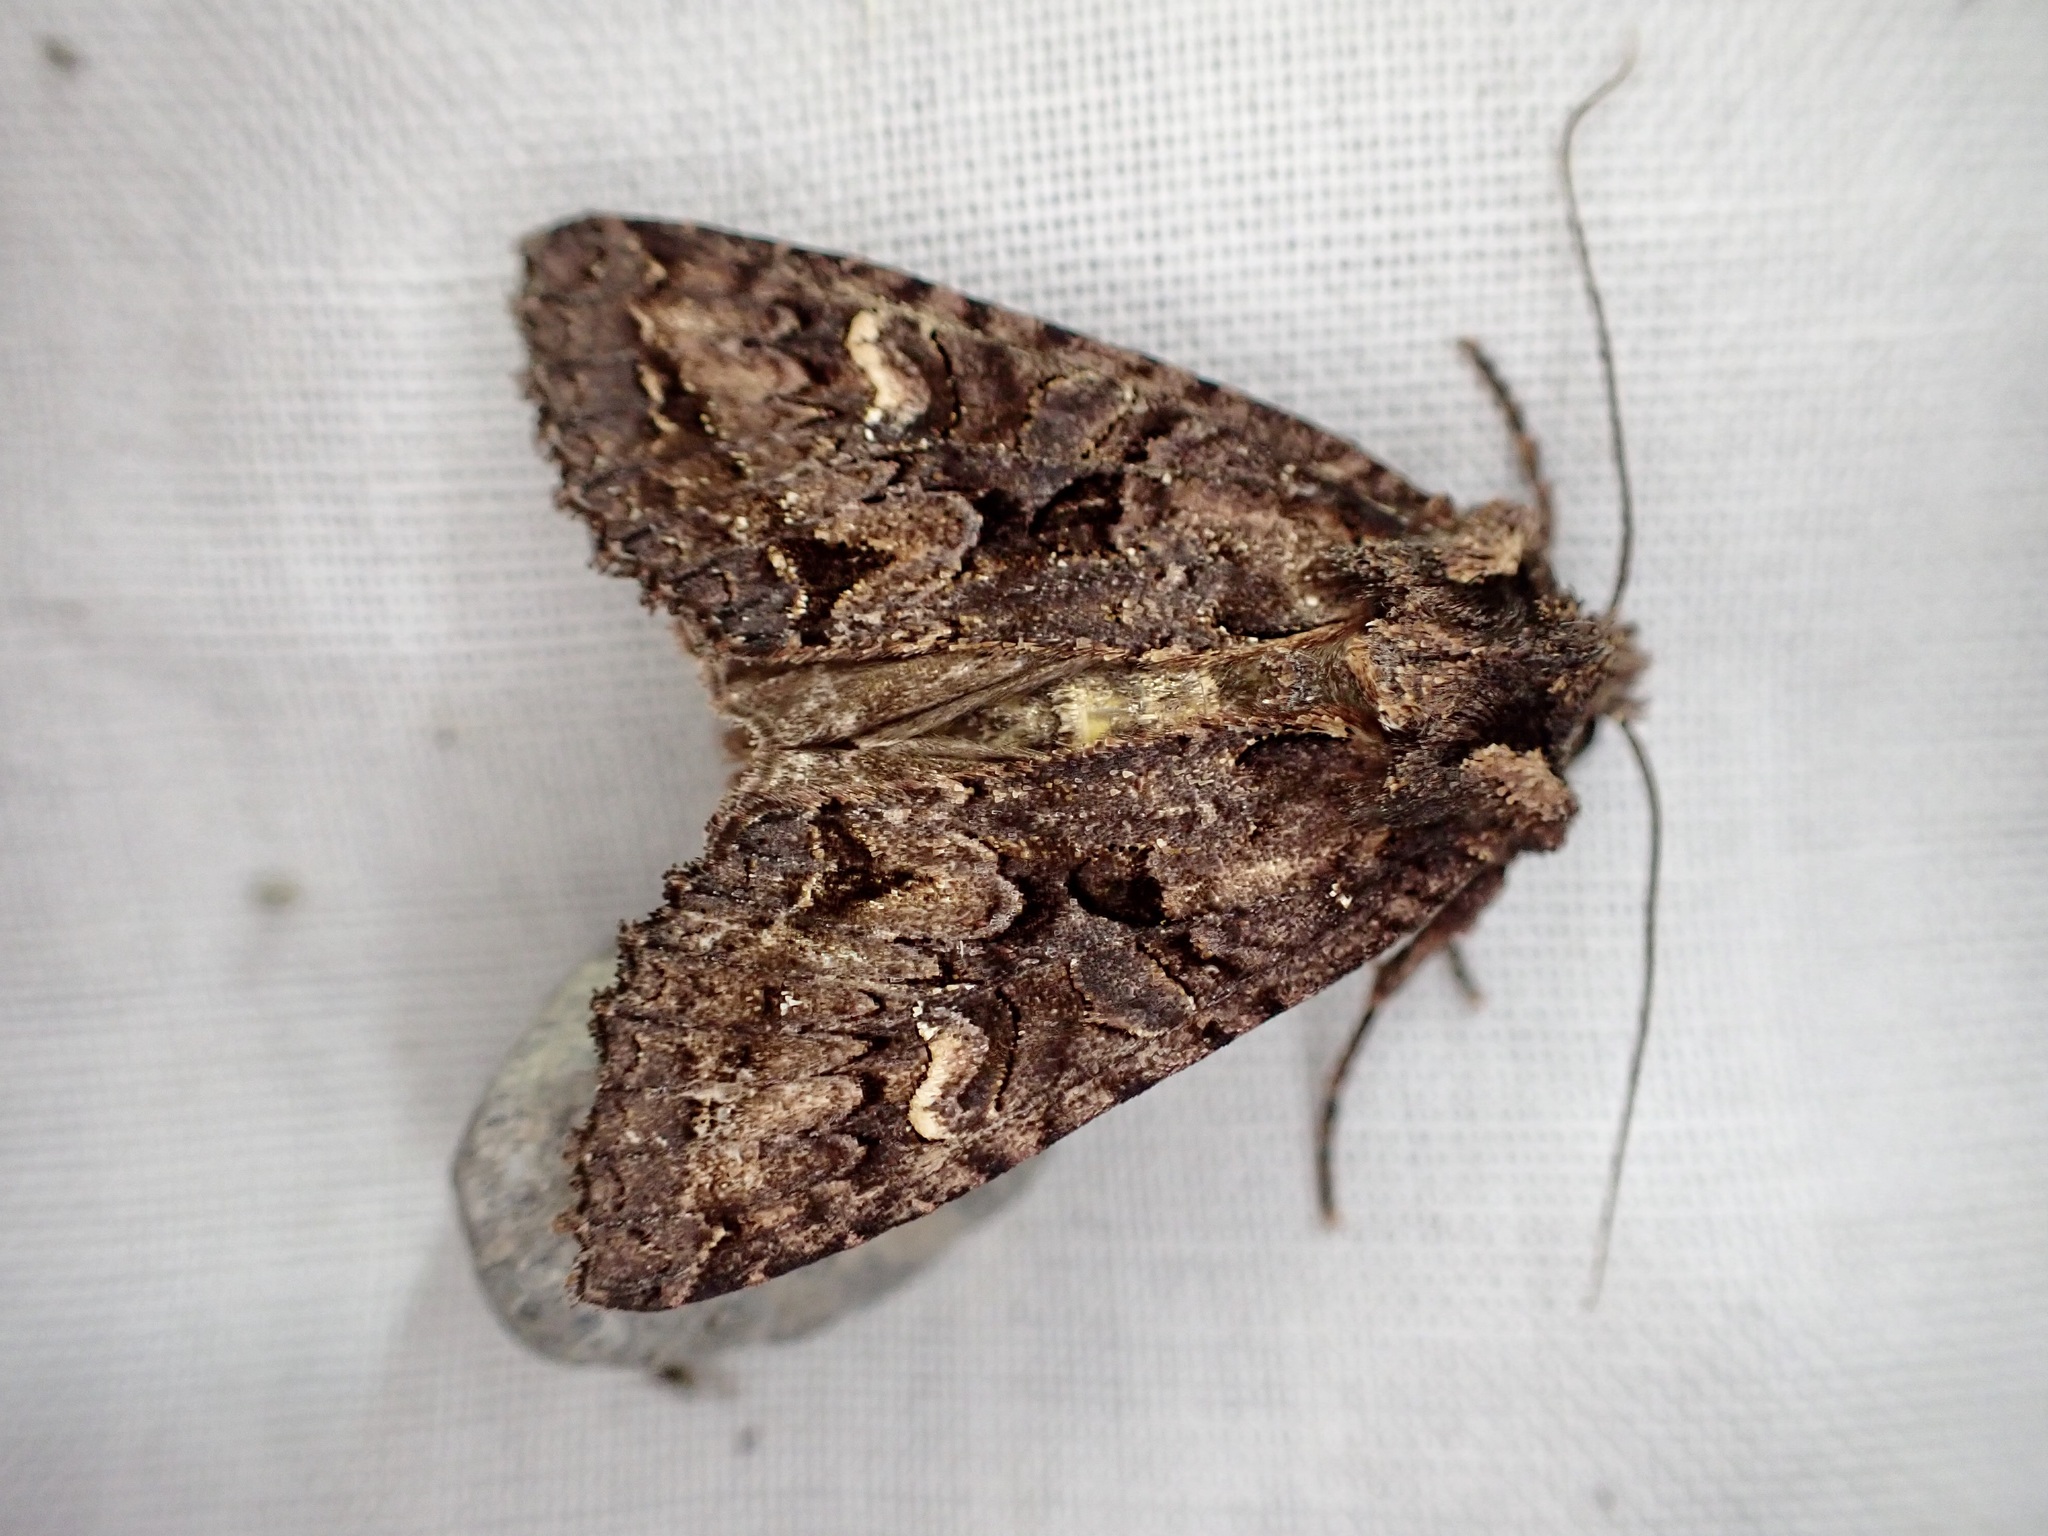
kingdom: Animalia
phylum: Arthropoda
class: Insecta
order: Lepidoptera
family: Noctuidae
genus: Meterana
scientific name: Meterana dotata
